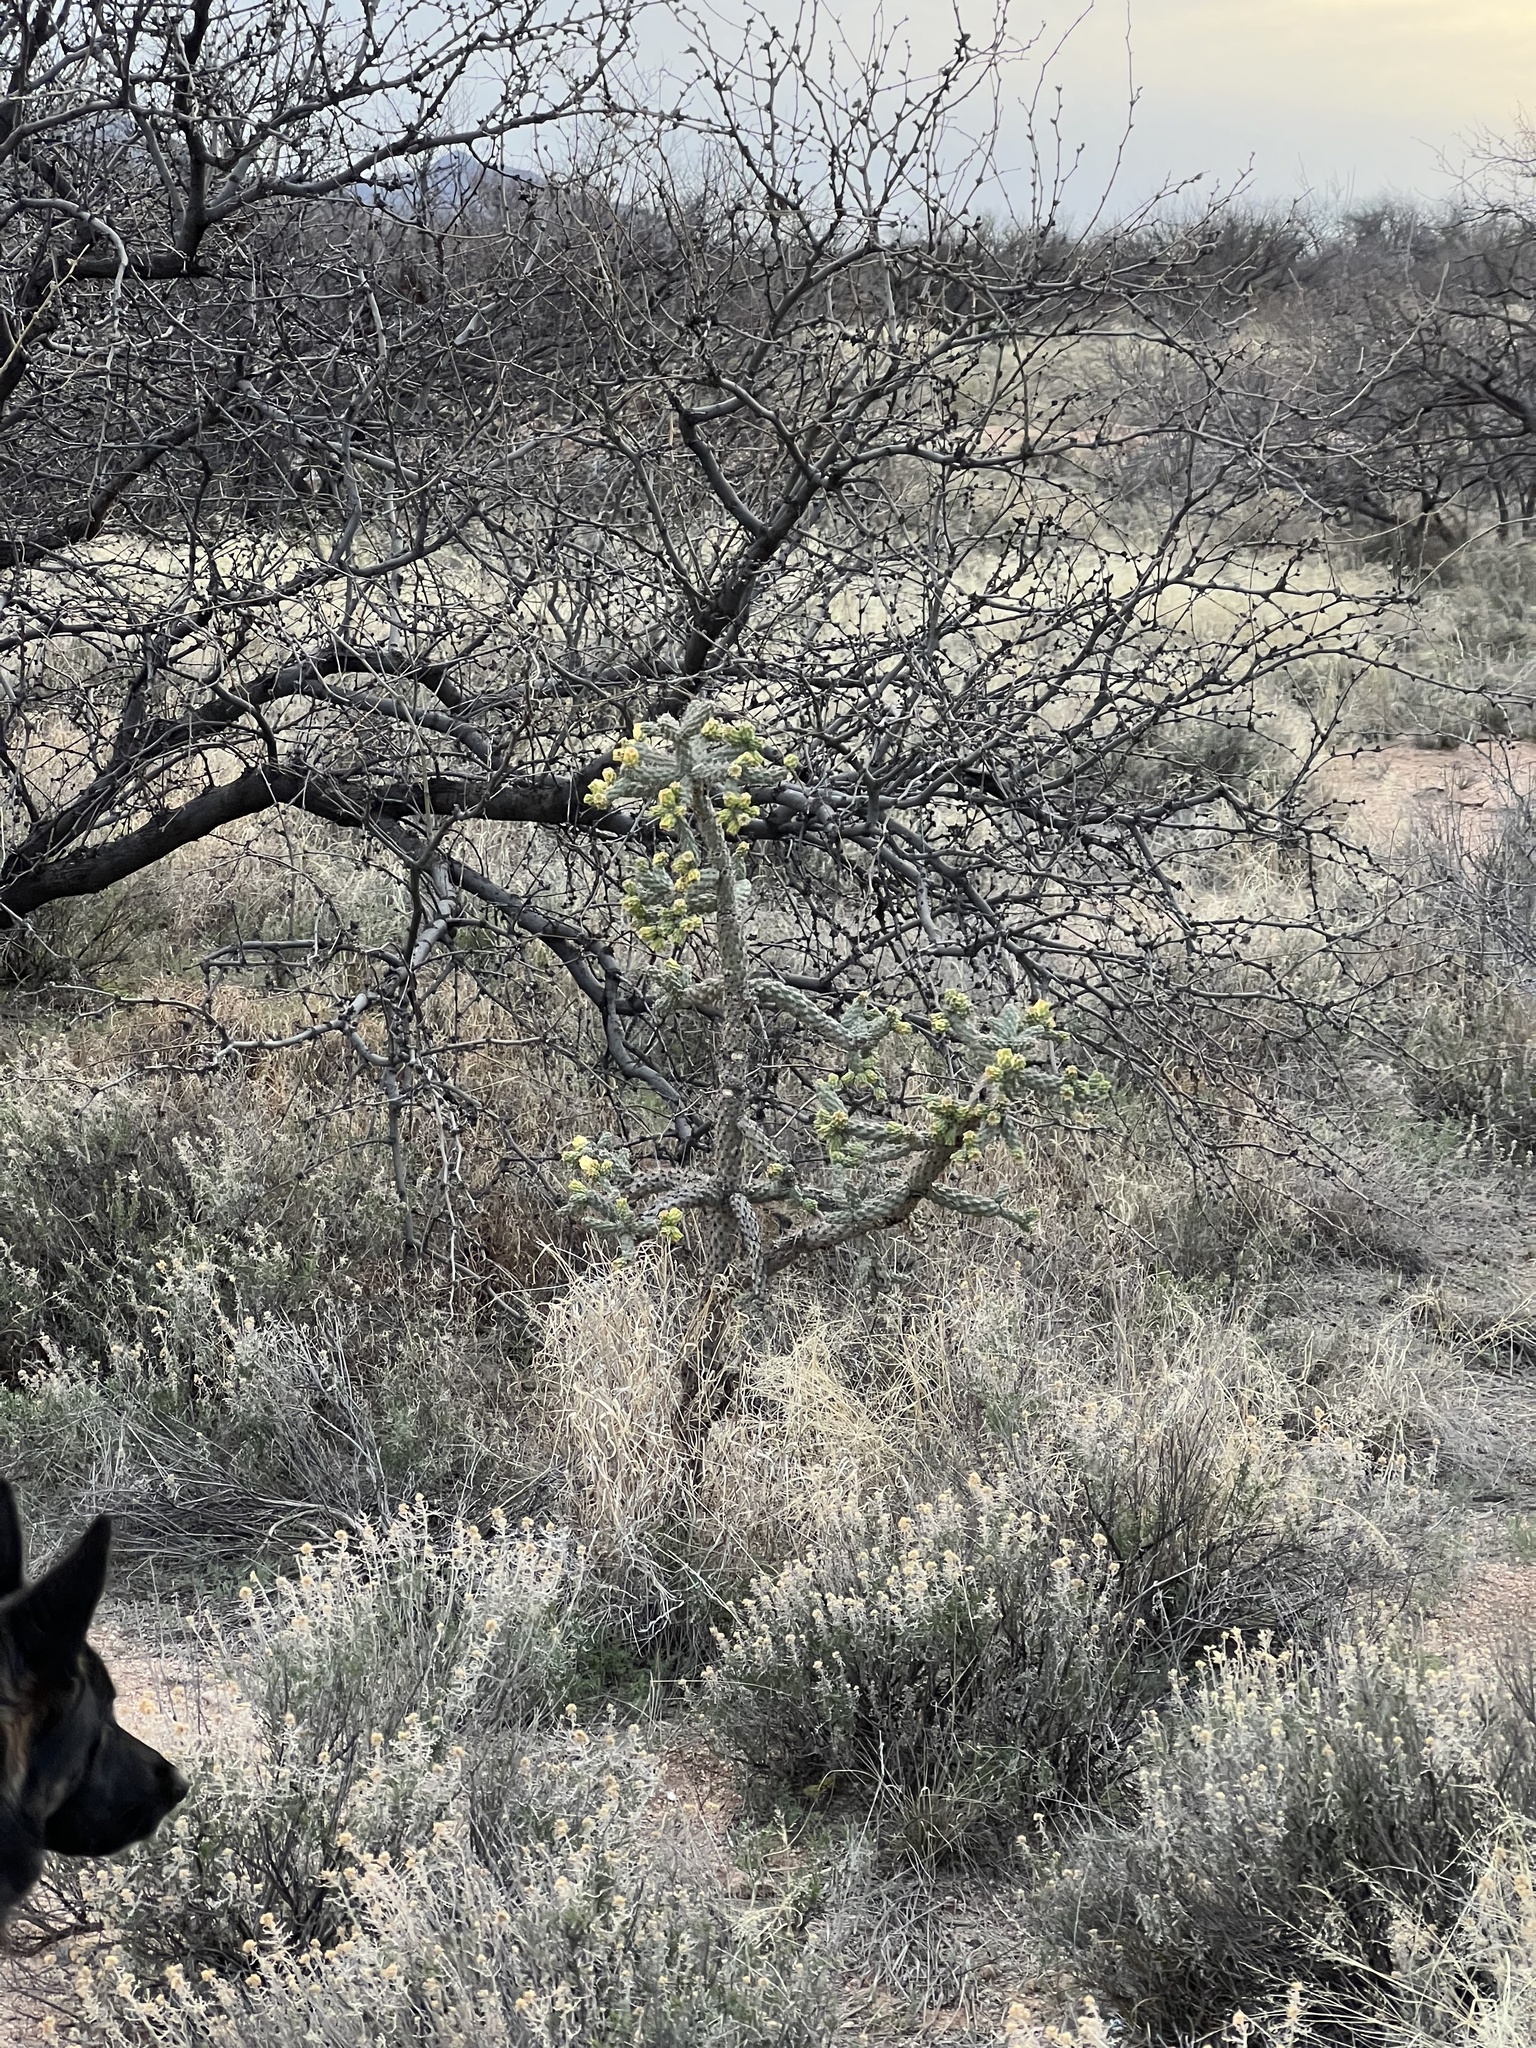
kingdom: Plantae
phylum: Tracheophyta
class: Magnoliopsida
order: Caryophyllales
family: Cactaceae
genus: Cylindropuntia
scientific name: Cylindropuntia imbricata
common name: Candelabrum cactus
